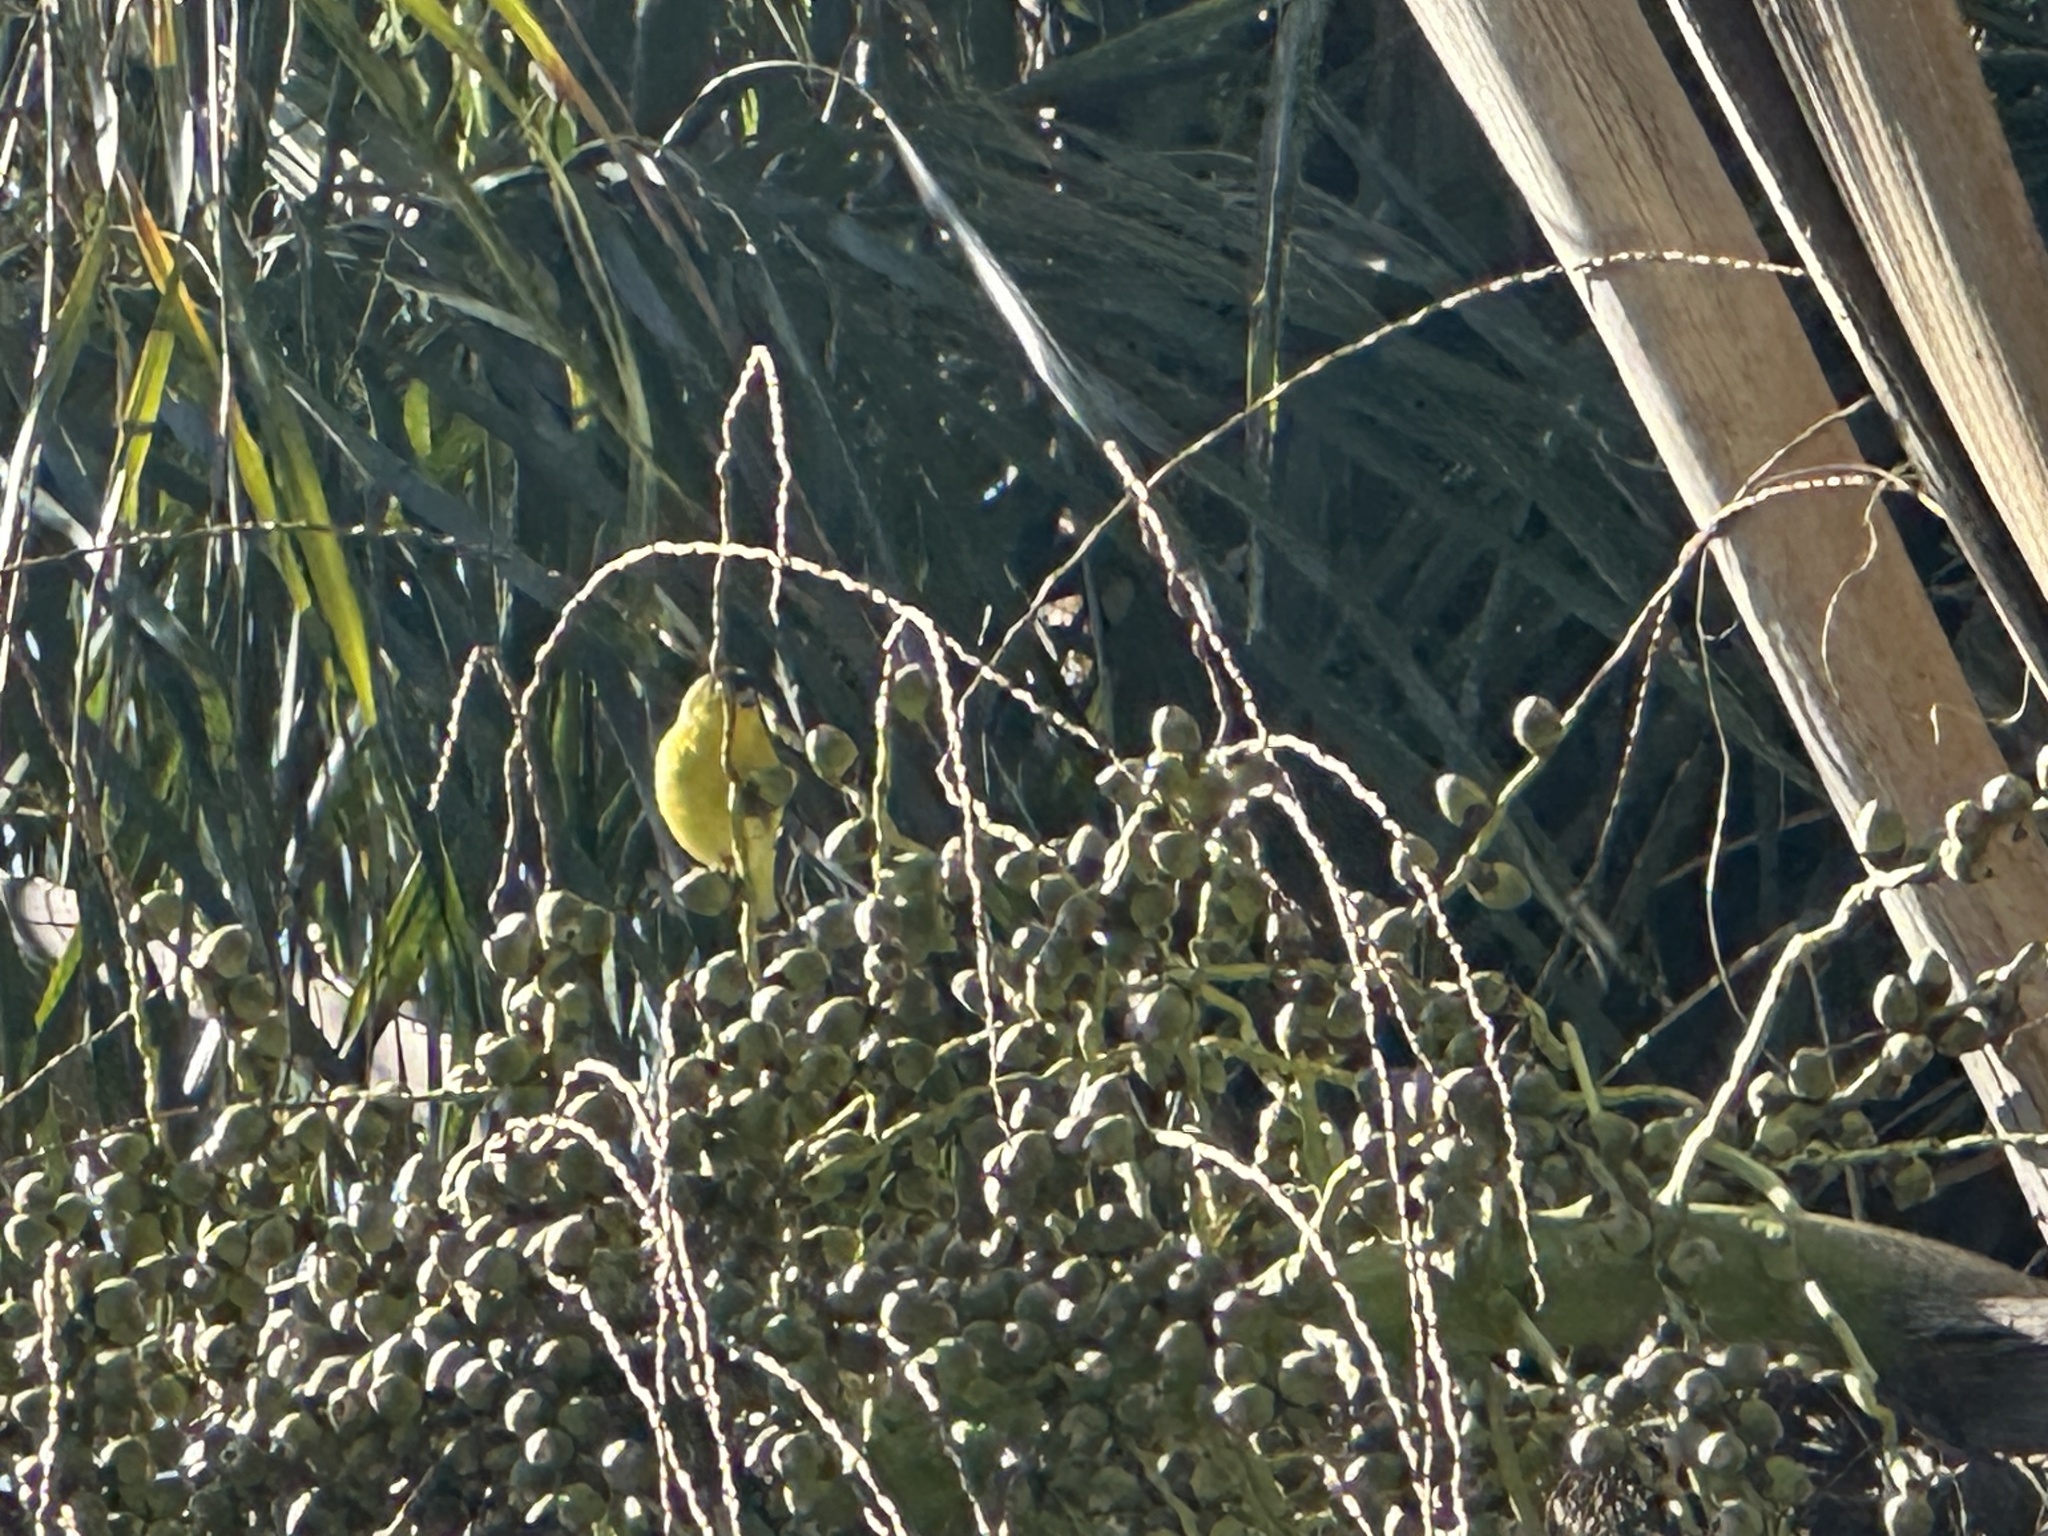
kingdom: Animalia
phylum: Chordata
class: Aves
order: Passeriformes
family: Fringillidae
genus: Spinus
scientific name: Spinus psaltria
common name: Lesser goldfinch
